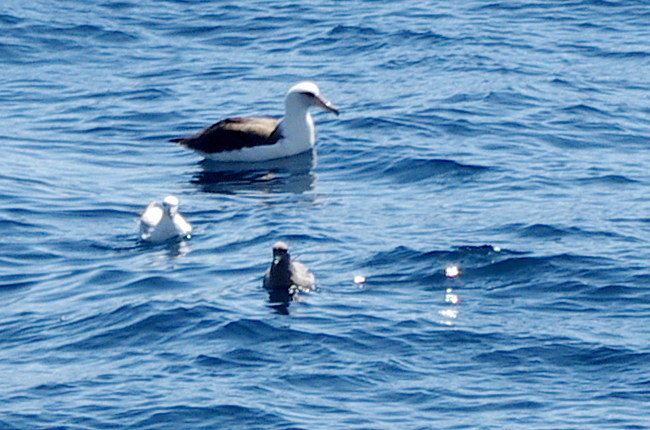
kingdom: Animalia
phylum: Chordata
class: Aves
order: Procellariiformes
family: Diomedeidae
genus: Phoebastria
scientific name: Phoebastria immutabilis
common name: Laysan albatross
